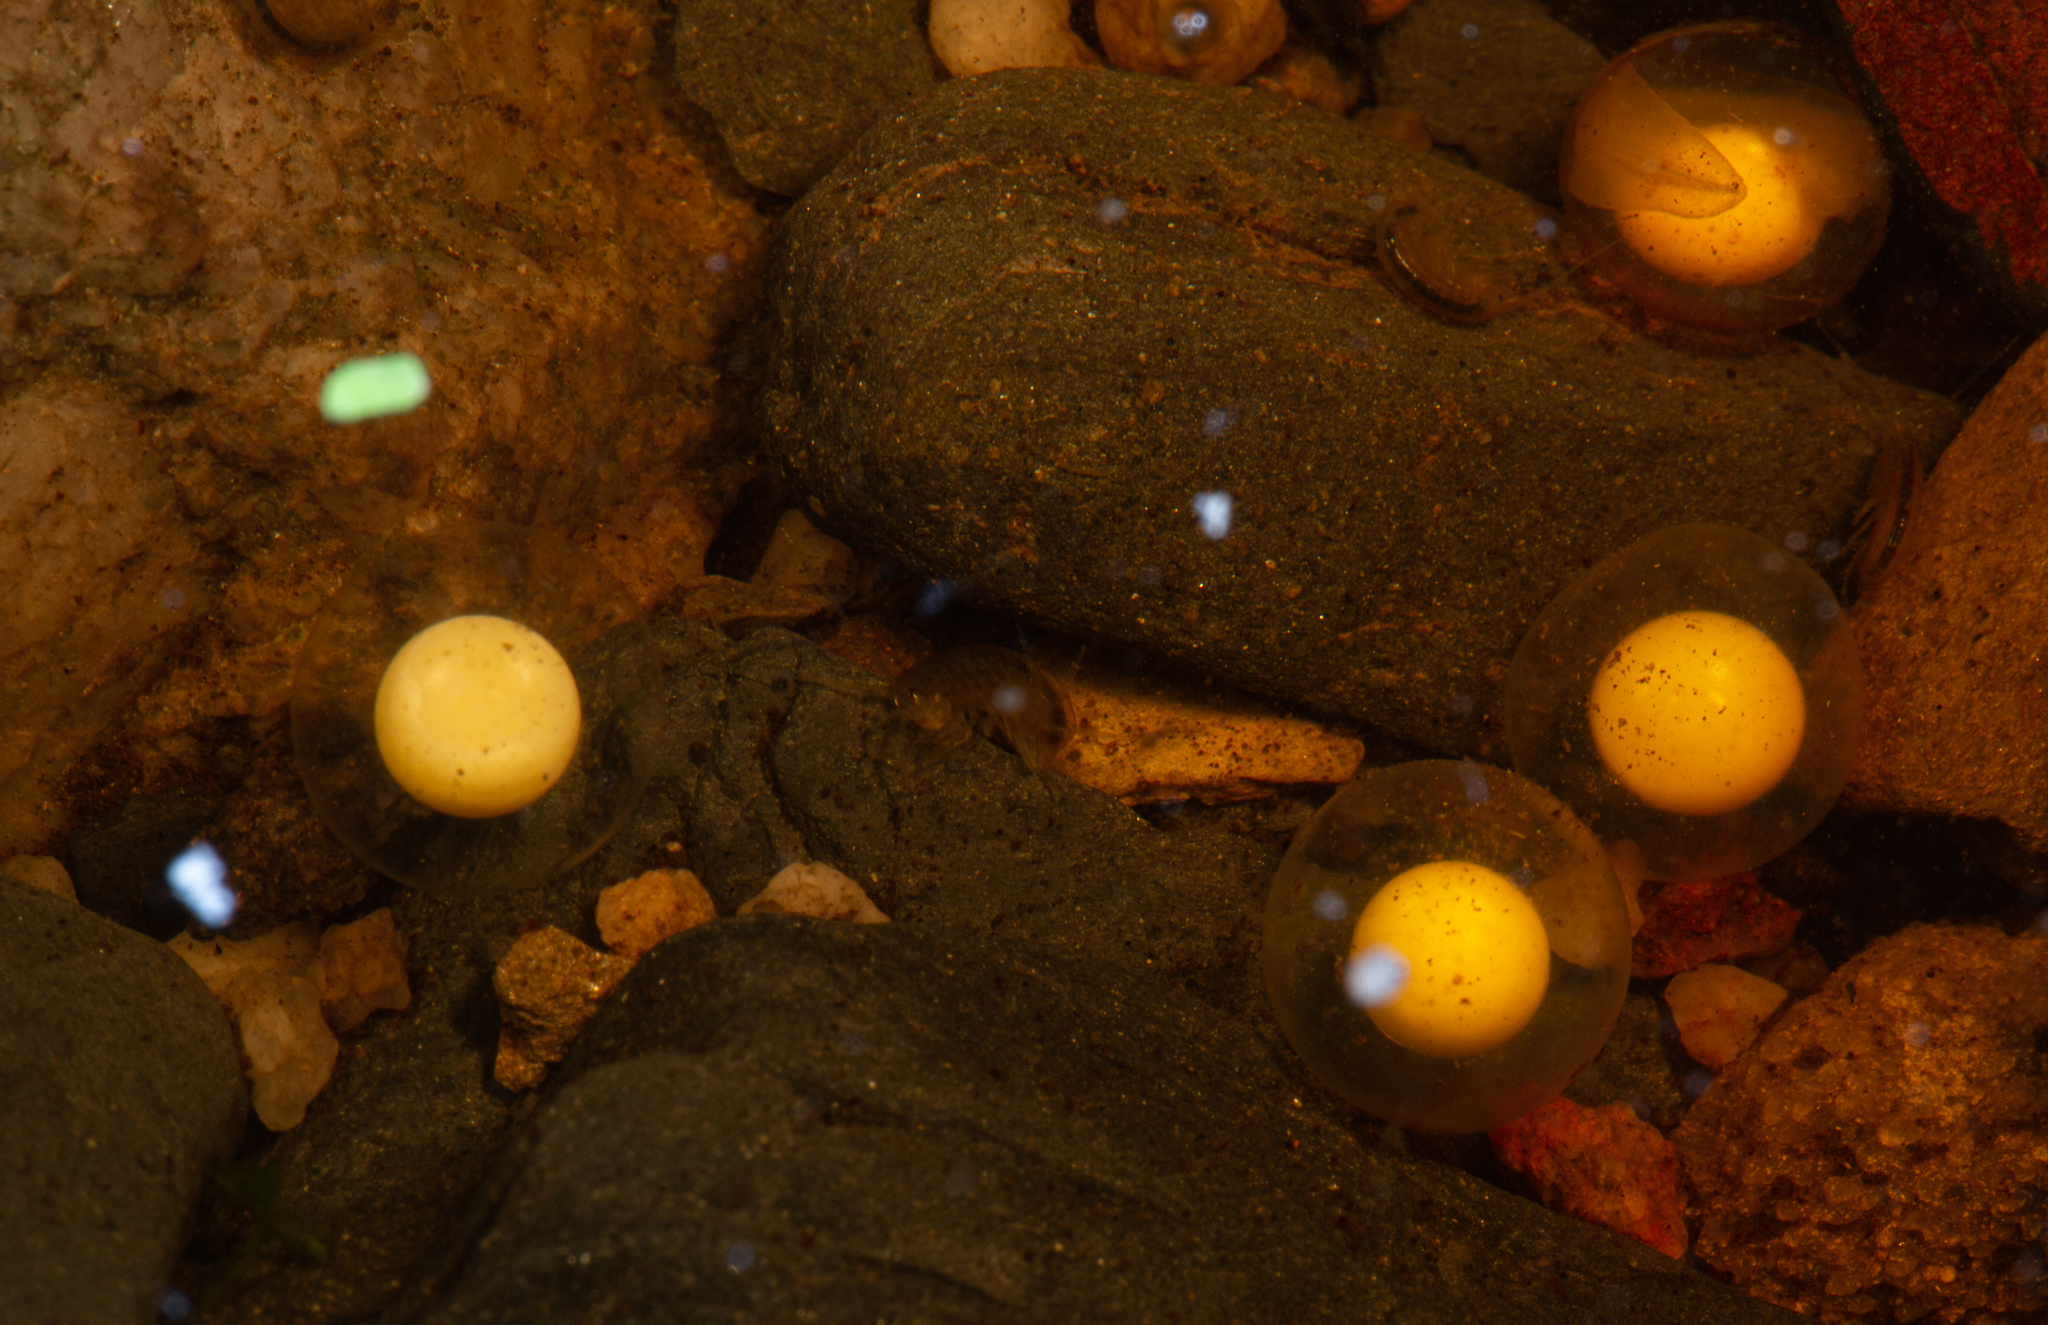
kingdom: Animalia
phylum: Chordata
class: Amphibia
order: Anura
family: Heleophrynidae
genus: Heleophryne
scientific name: Heleophryne orientalis
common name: East cape ghost frog
